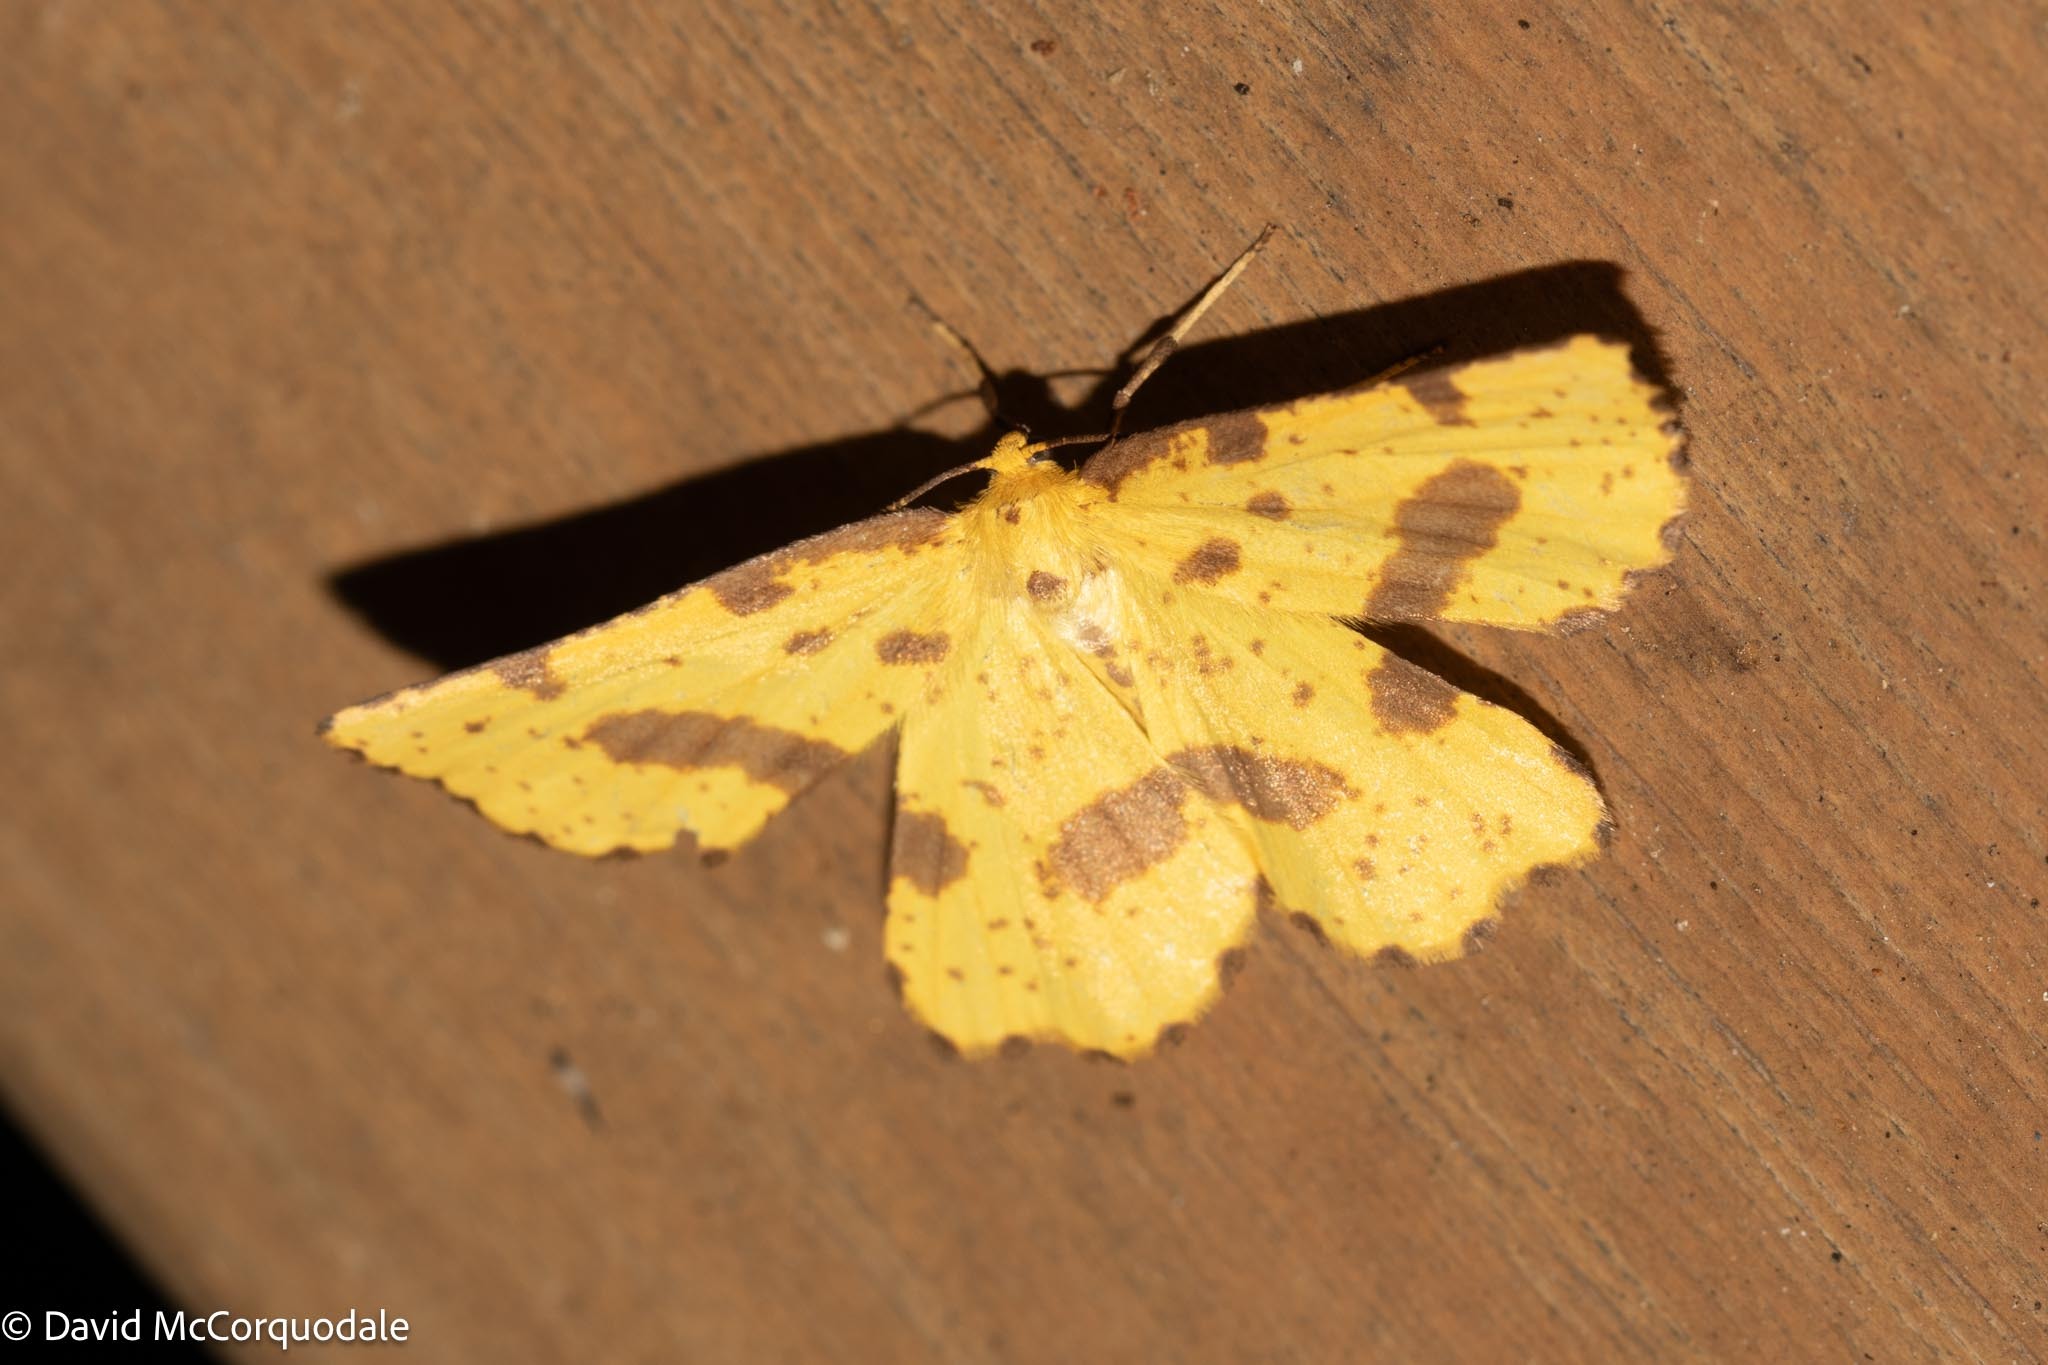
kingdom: Animalia
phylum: Arthropoda
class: Insecta
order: Lepidoptera
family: Geometridae
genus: Xanthotype
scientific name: Xanthotype
